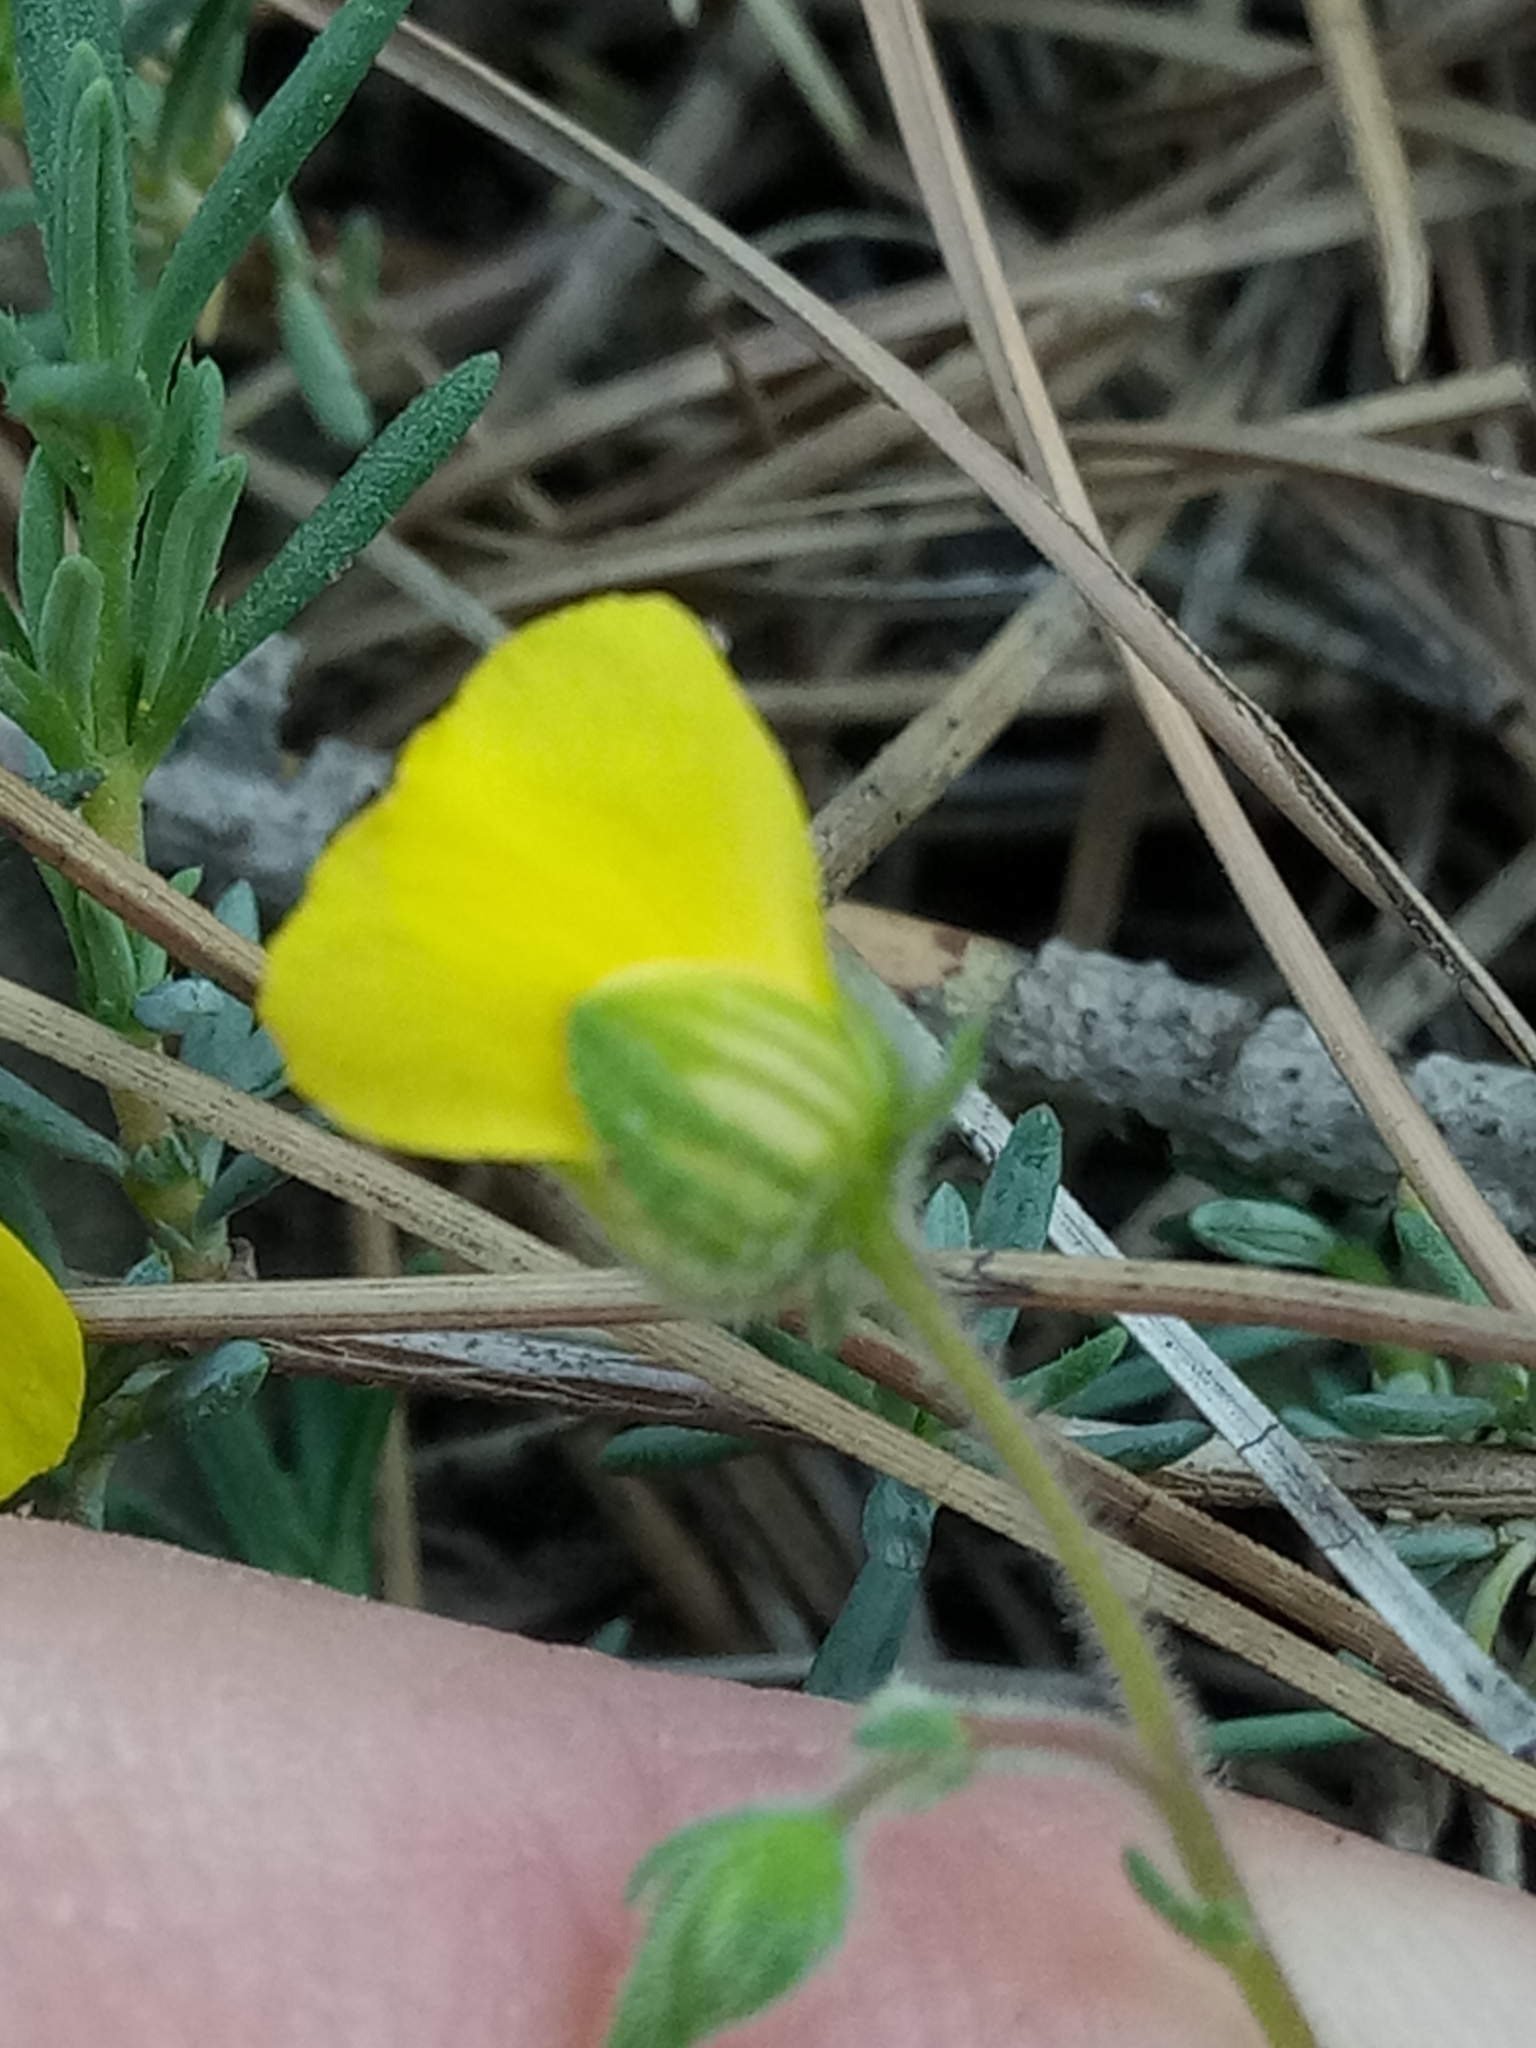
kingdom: Plantae
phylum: Tracheophyta
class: Magnoliopsida
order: Malvales
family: Cistaceae
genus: Fumana
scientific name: Fumana laevis
